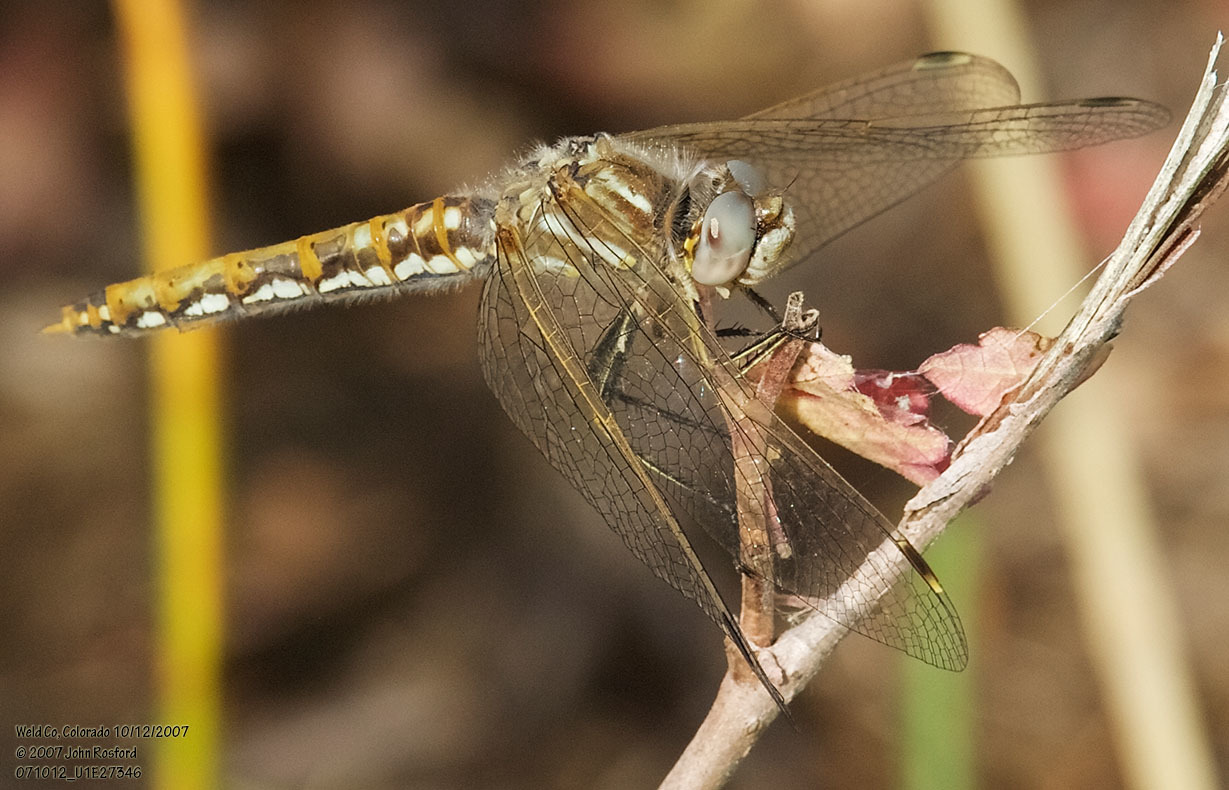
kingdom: Animalia
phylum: Arthropoda
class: Insecta
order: Odonata
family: Libellulidae
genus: Sympetrum
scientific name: Sympetrum corruptum
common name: Variegated meadowhawk
